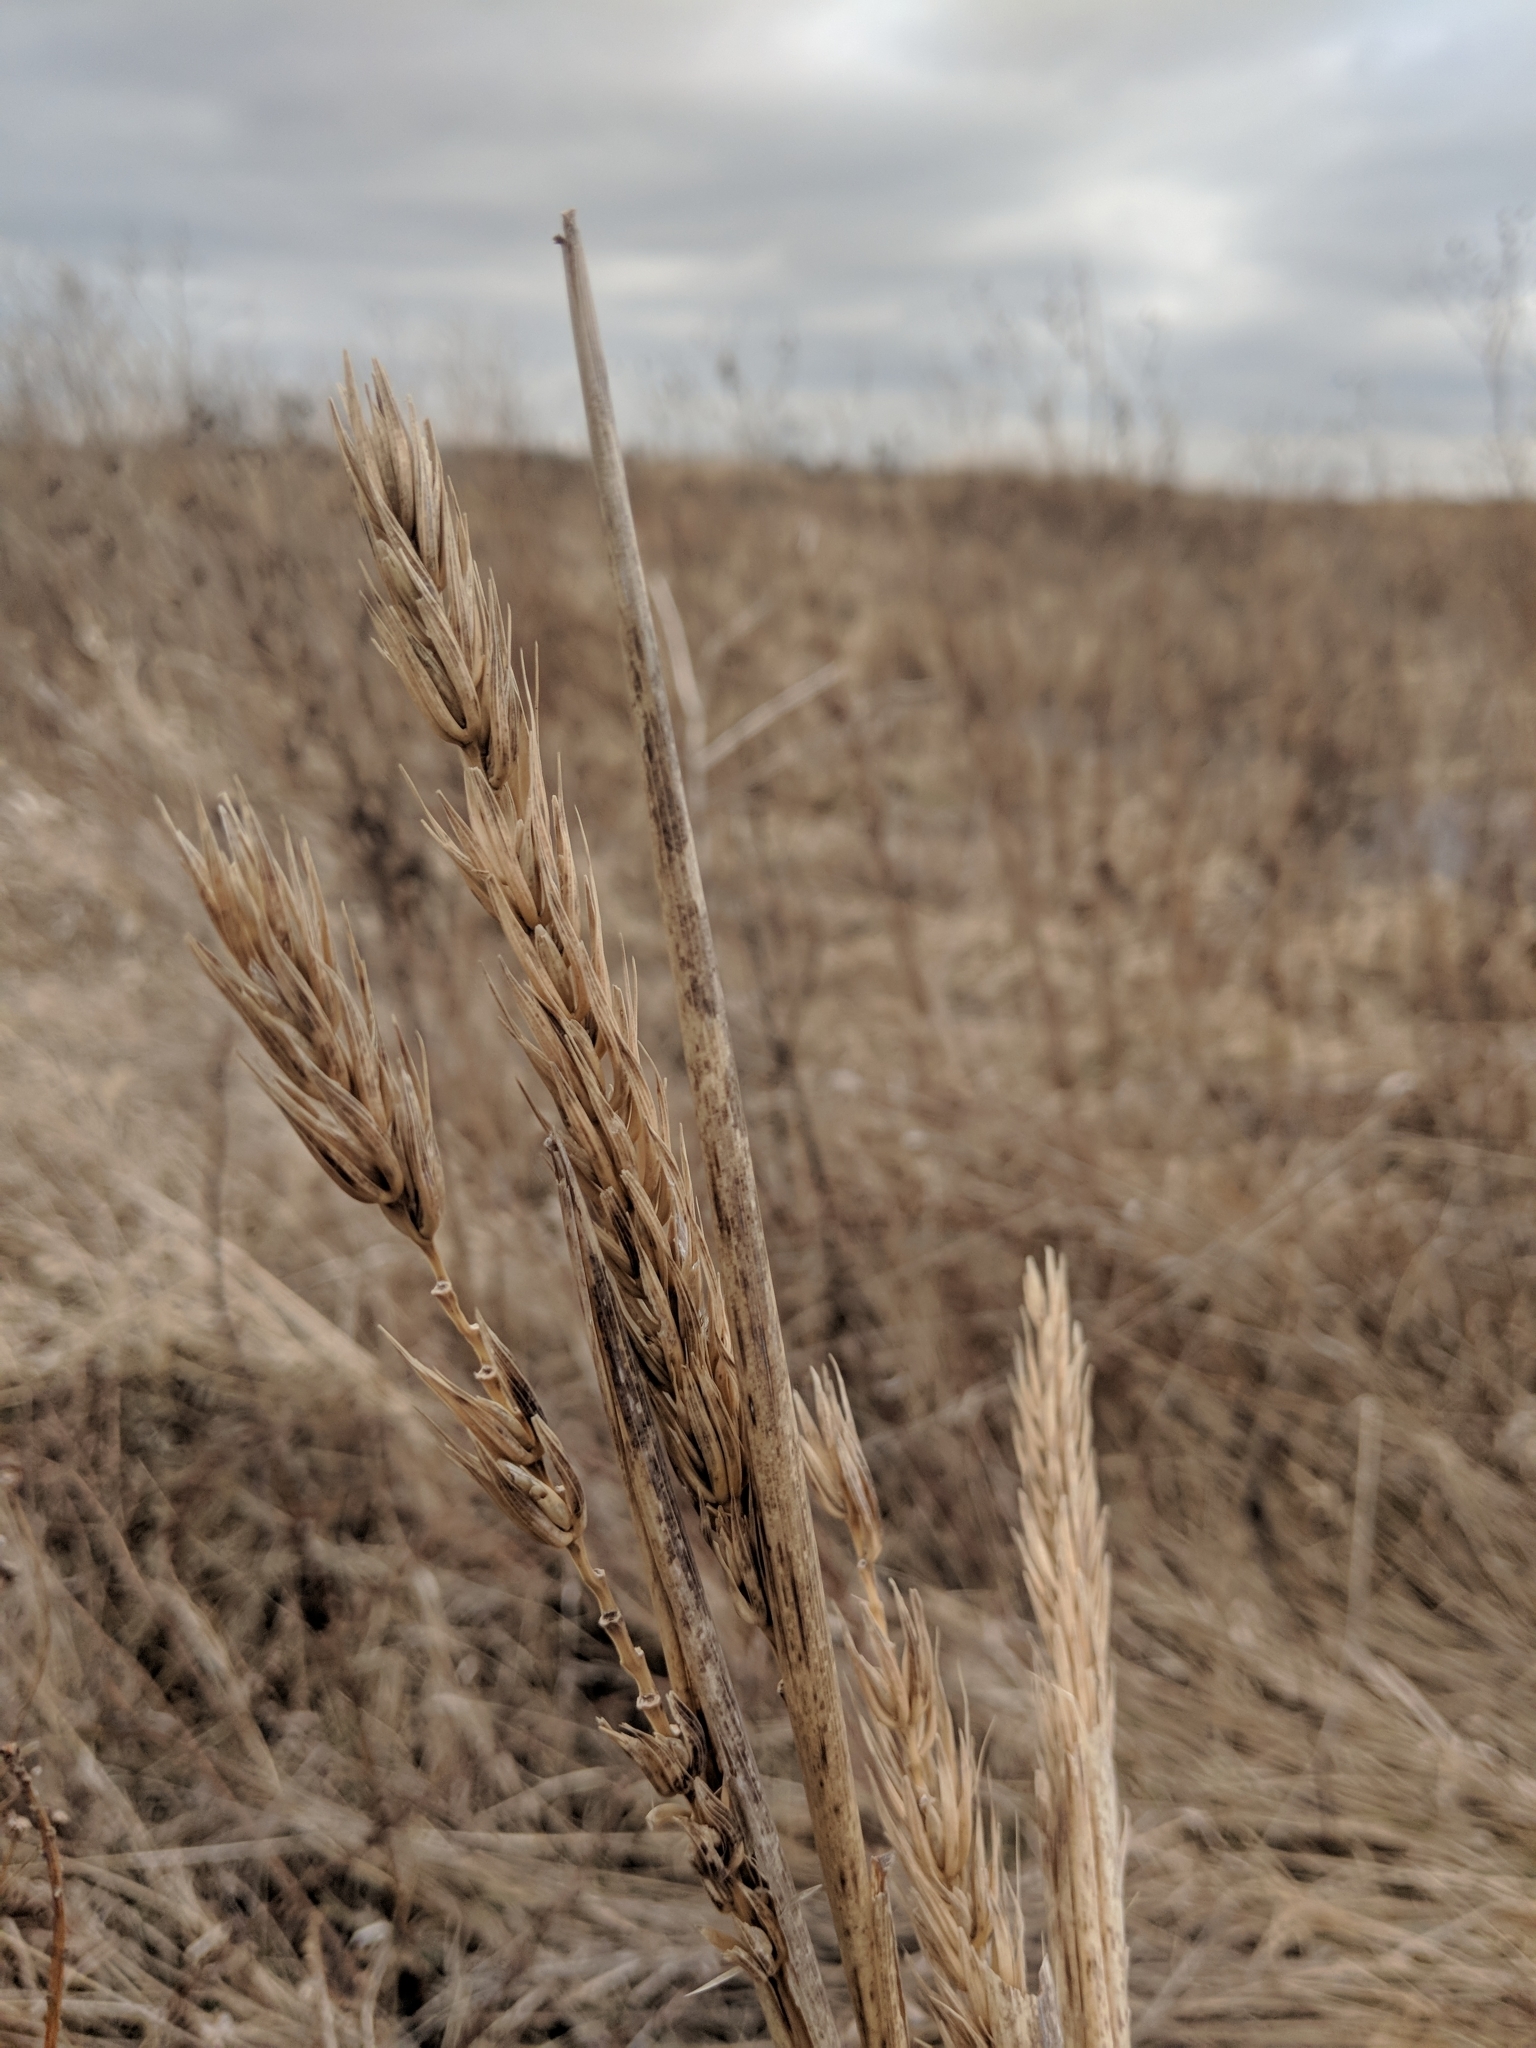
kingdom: Plantae
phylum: Tracheophyta
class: Liliopsida
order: Poales
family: Poaceae
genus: Elymus
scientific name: Elymus virginicus
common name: Common eastern wildrye
